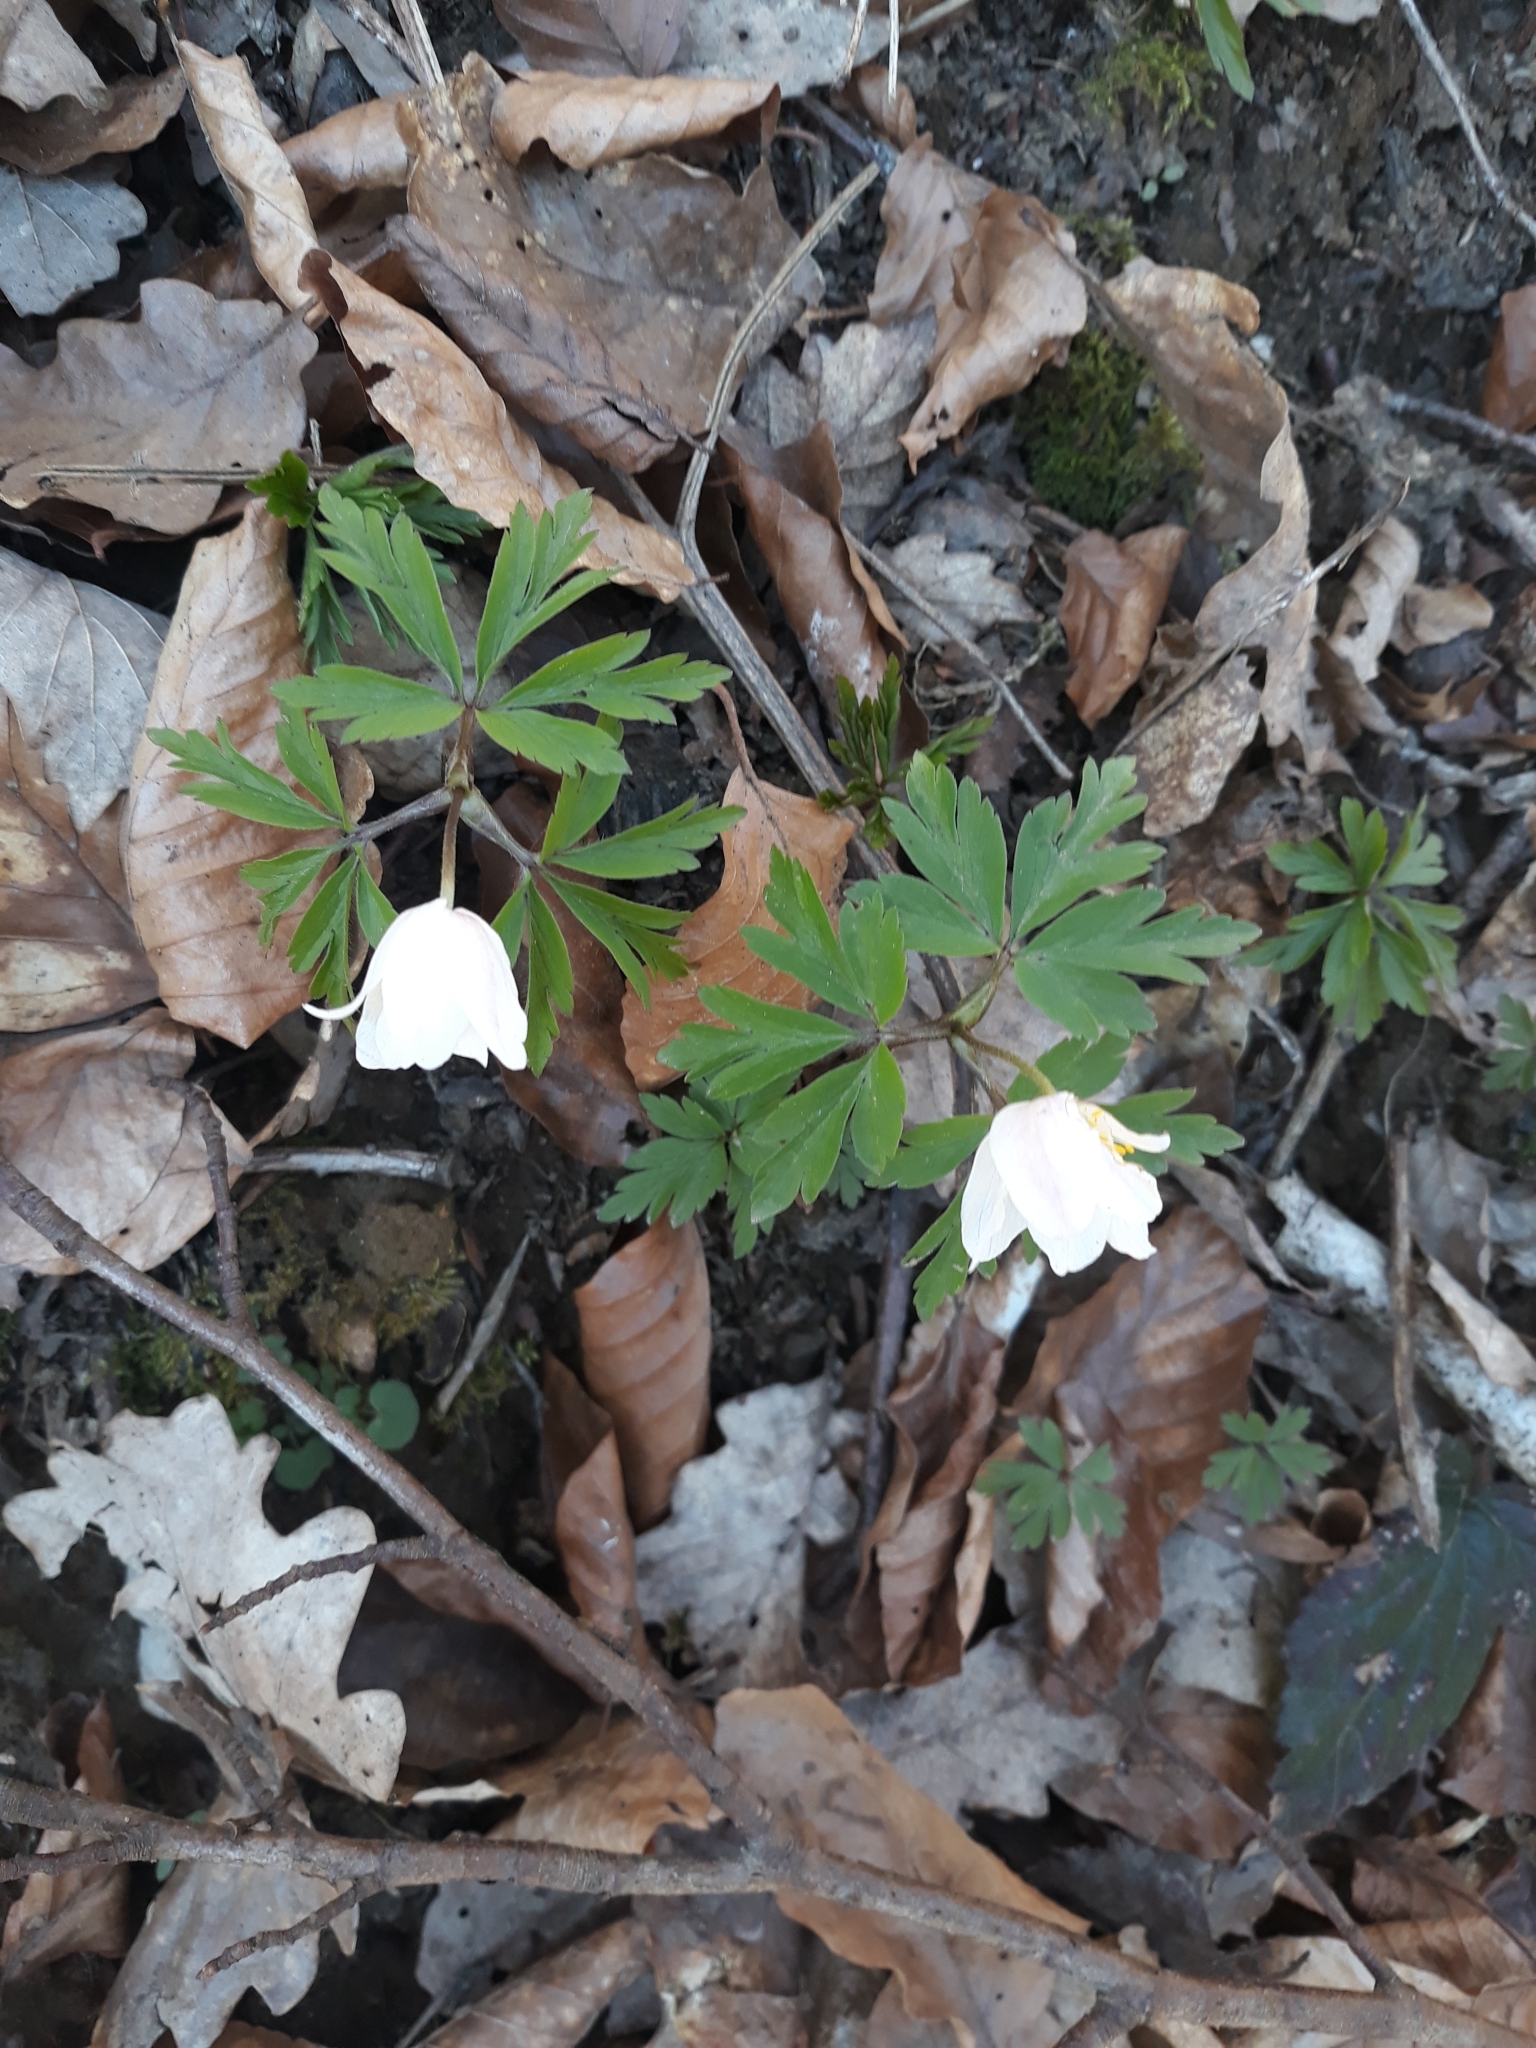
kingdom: Plantae
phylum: Tracheophyta
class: Magnoliopsida
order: Ranunculales
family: Ranunculaceae
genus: Anemone
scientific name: Anemone nemorosa
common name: Wood anemone
